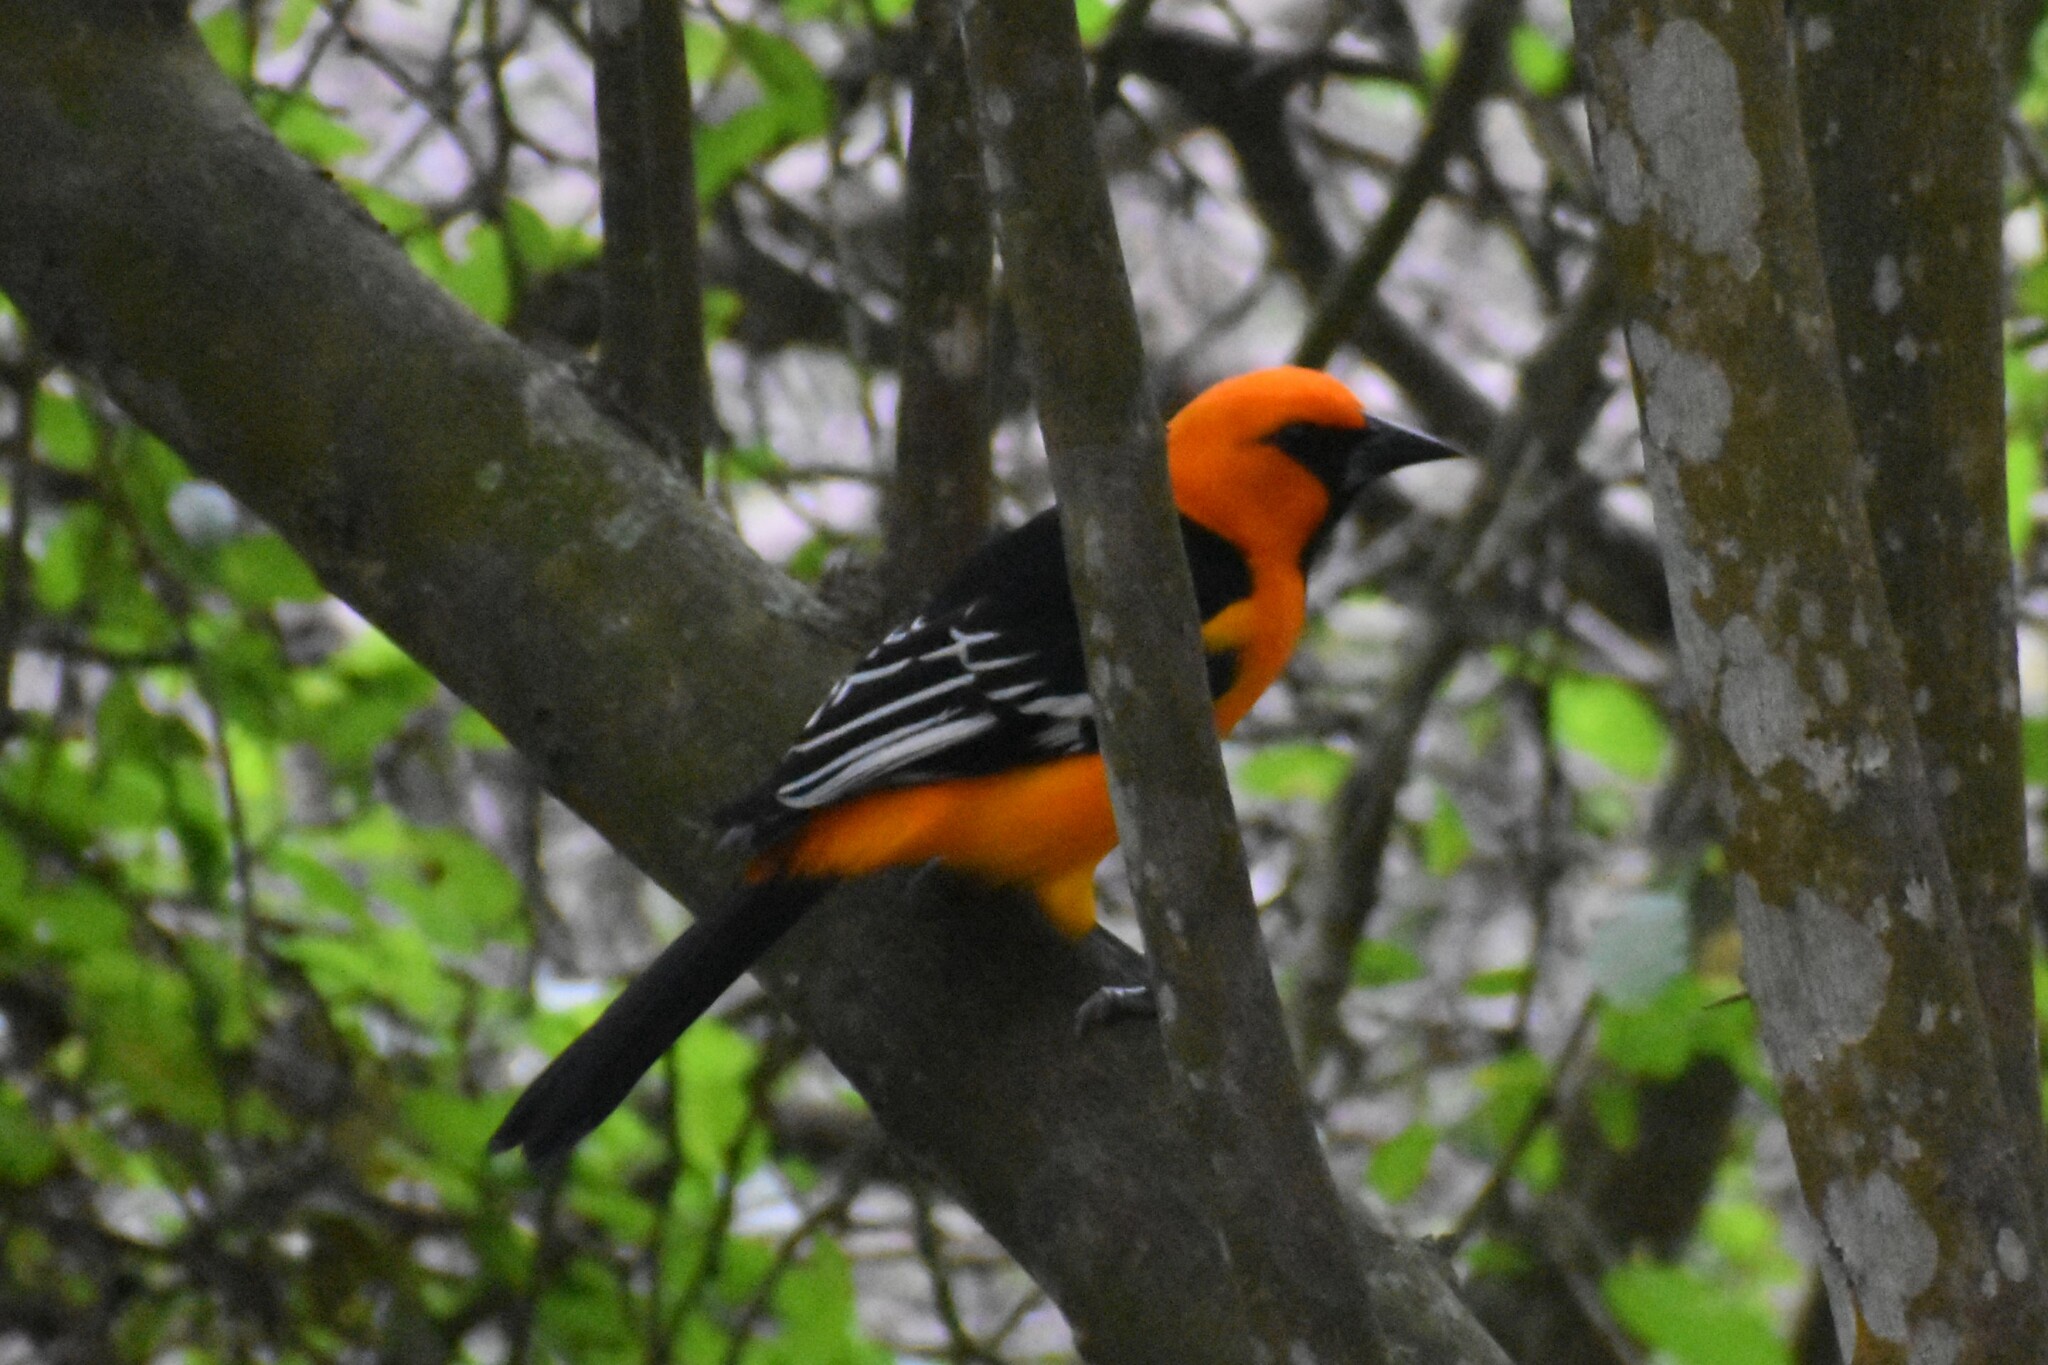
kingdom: Animalia
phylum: Chordata
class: Aves
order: Passeriformes
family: Icteridae
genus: Icterus
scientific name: Icterus gularis
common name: Altamira oriole
